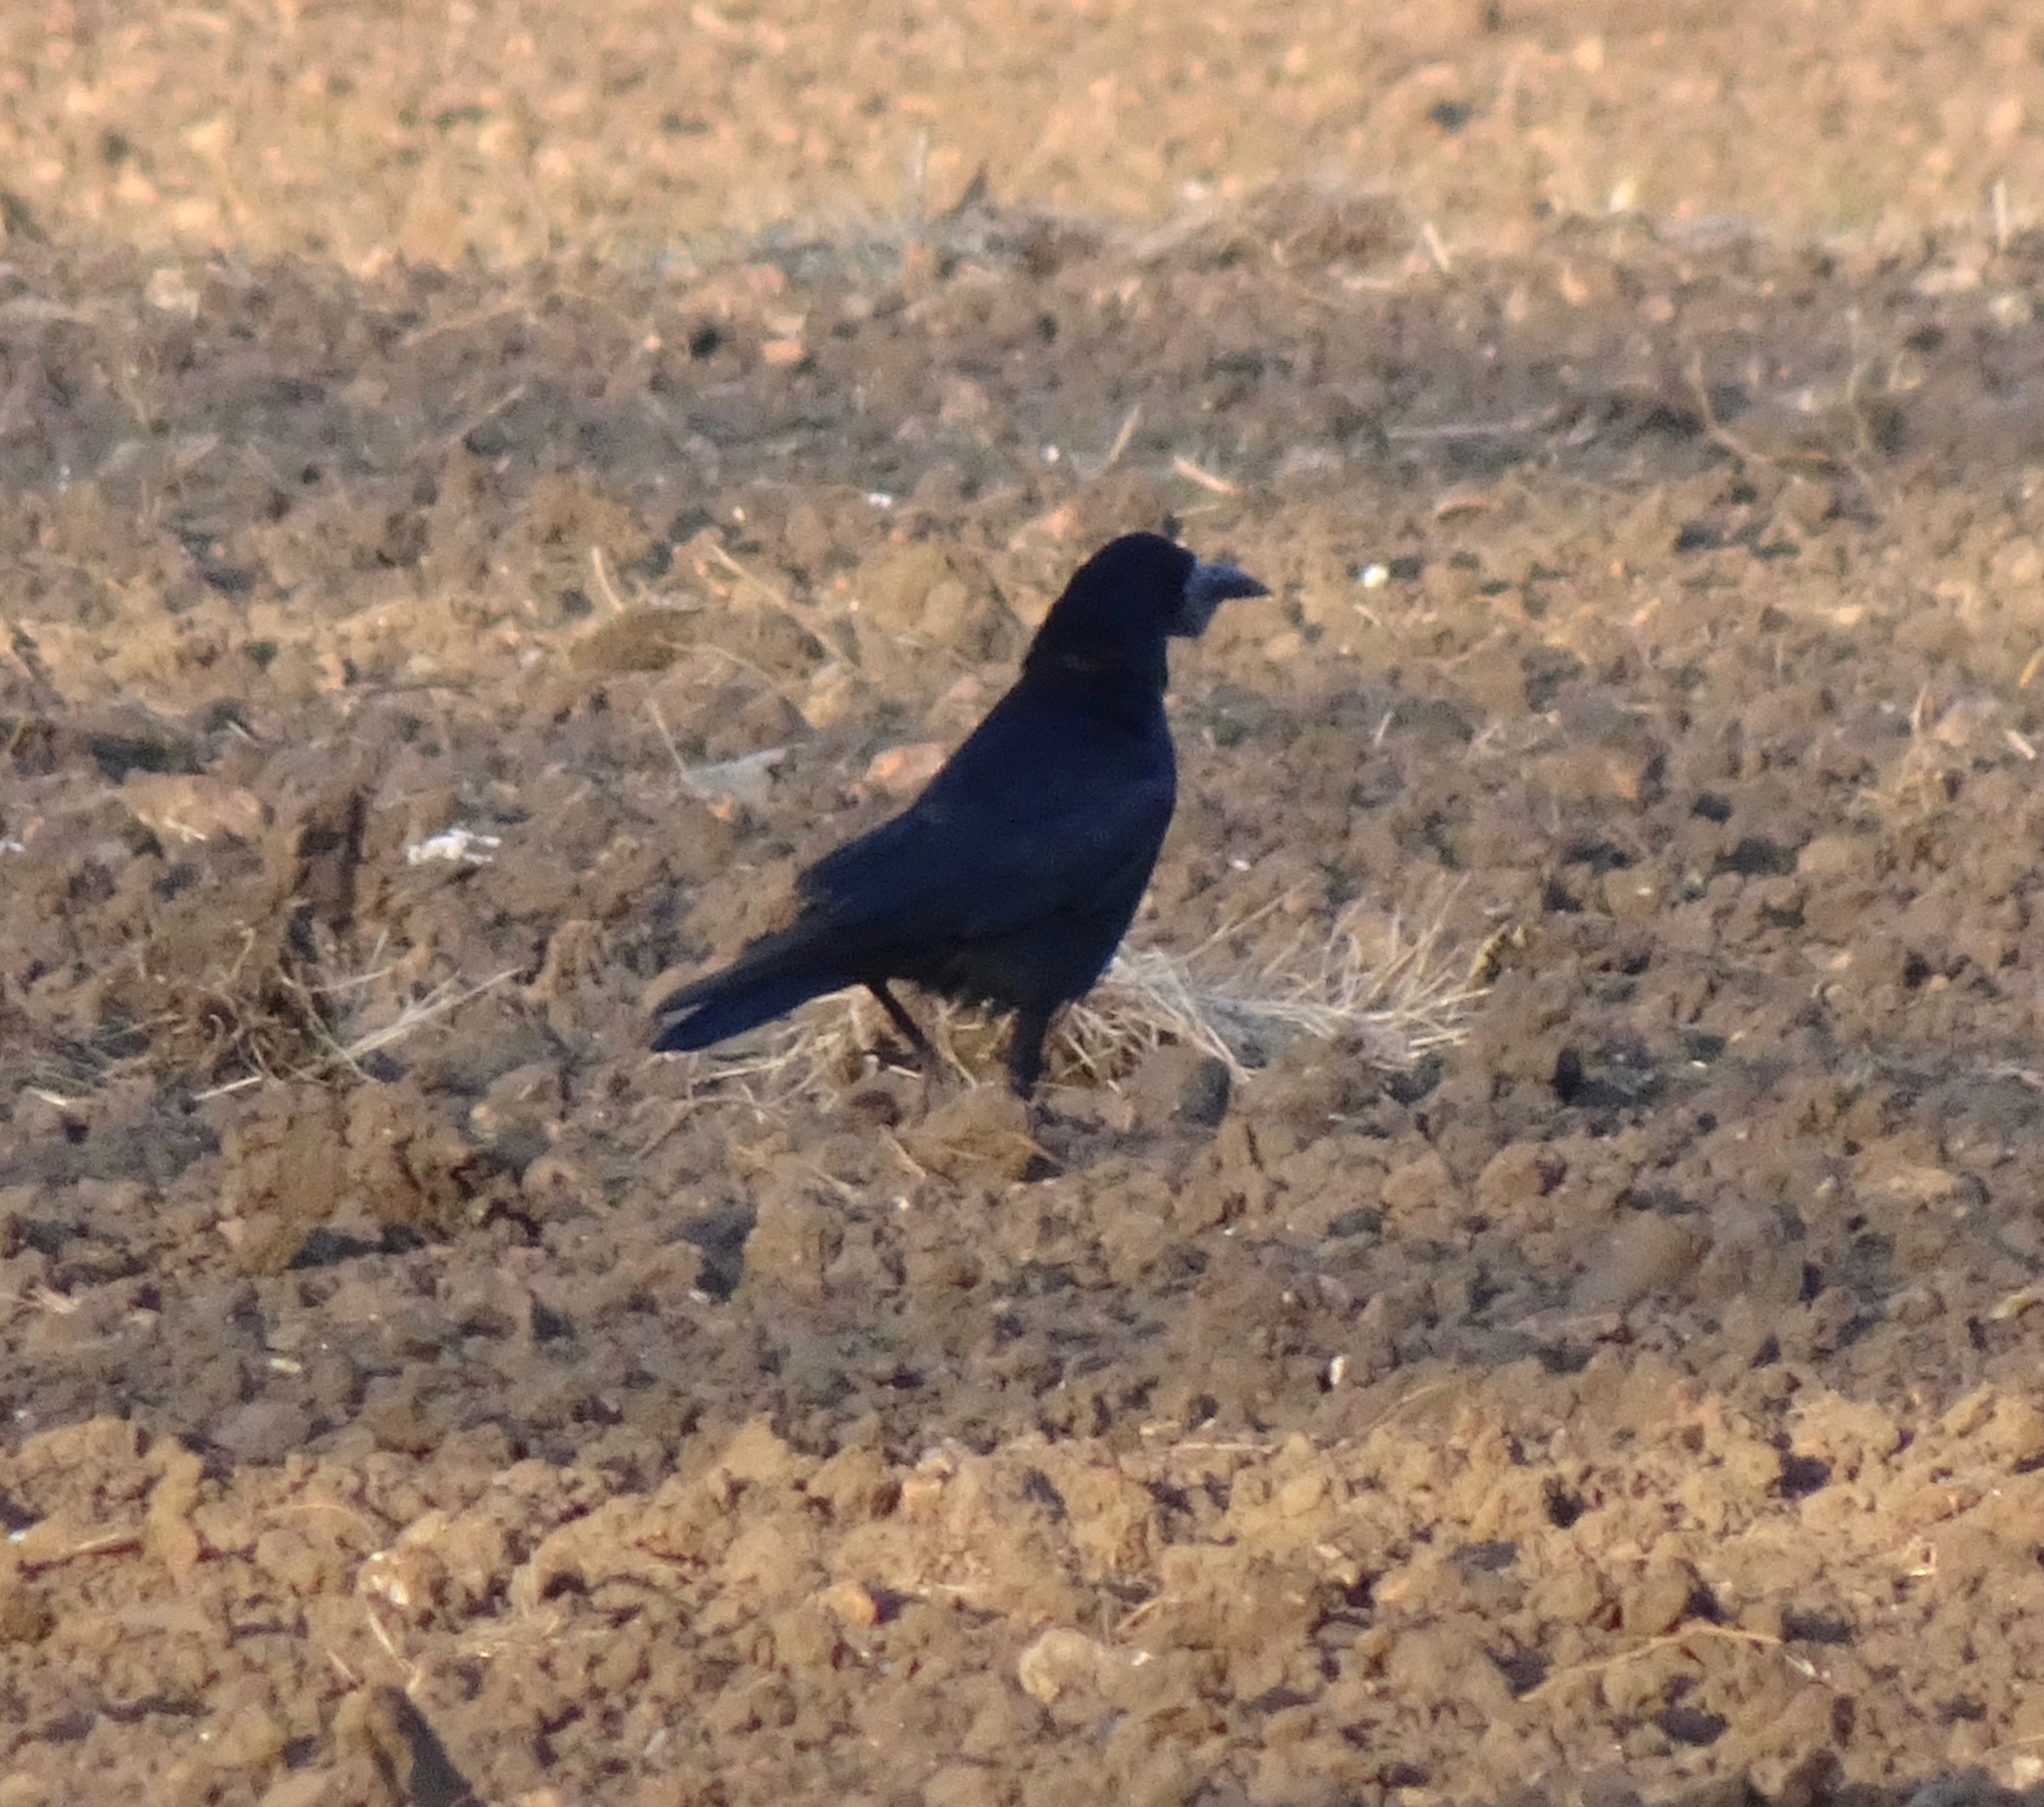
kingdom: Animalia
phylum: Chordata
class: Aves
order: Passeriformes
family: Corvidae
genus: Corvus
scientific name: Corvus frugilegus
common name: Rook
